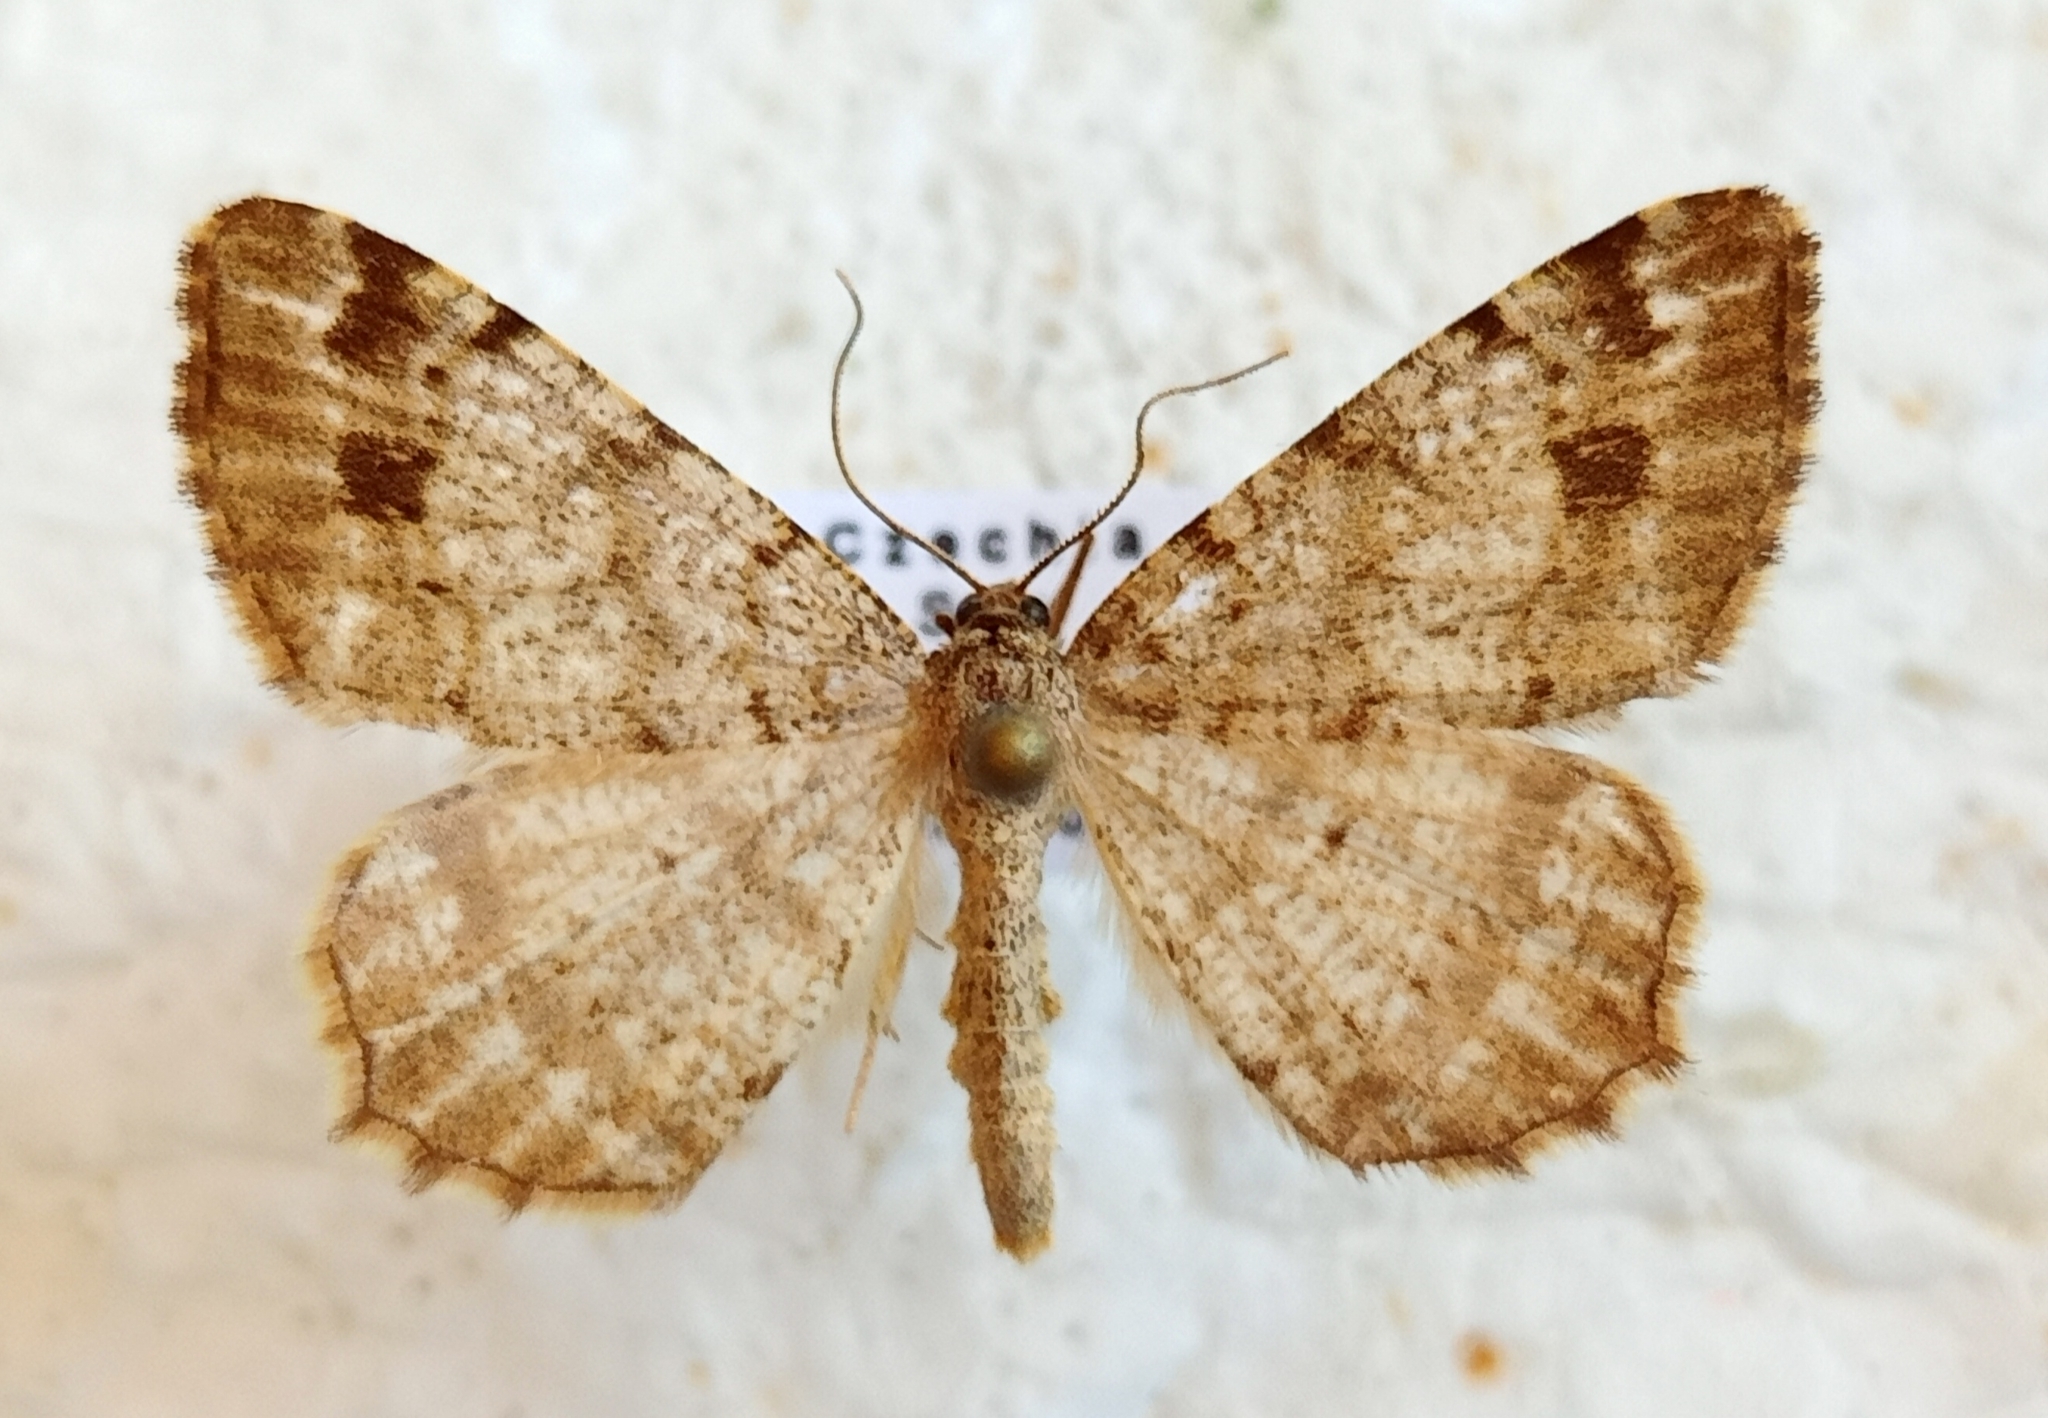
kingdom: Animalia
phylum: Arthropoda
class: Insecta
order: Lepidoptera
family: Geometridae
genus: Macaria
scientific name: Macaria signaria
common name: Dusky peacock
